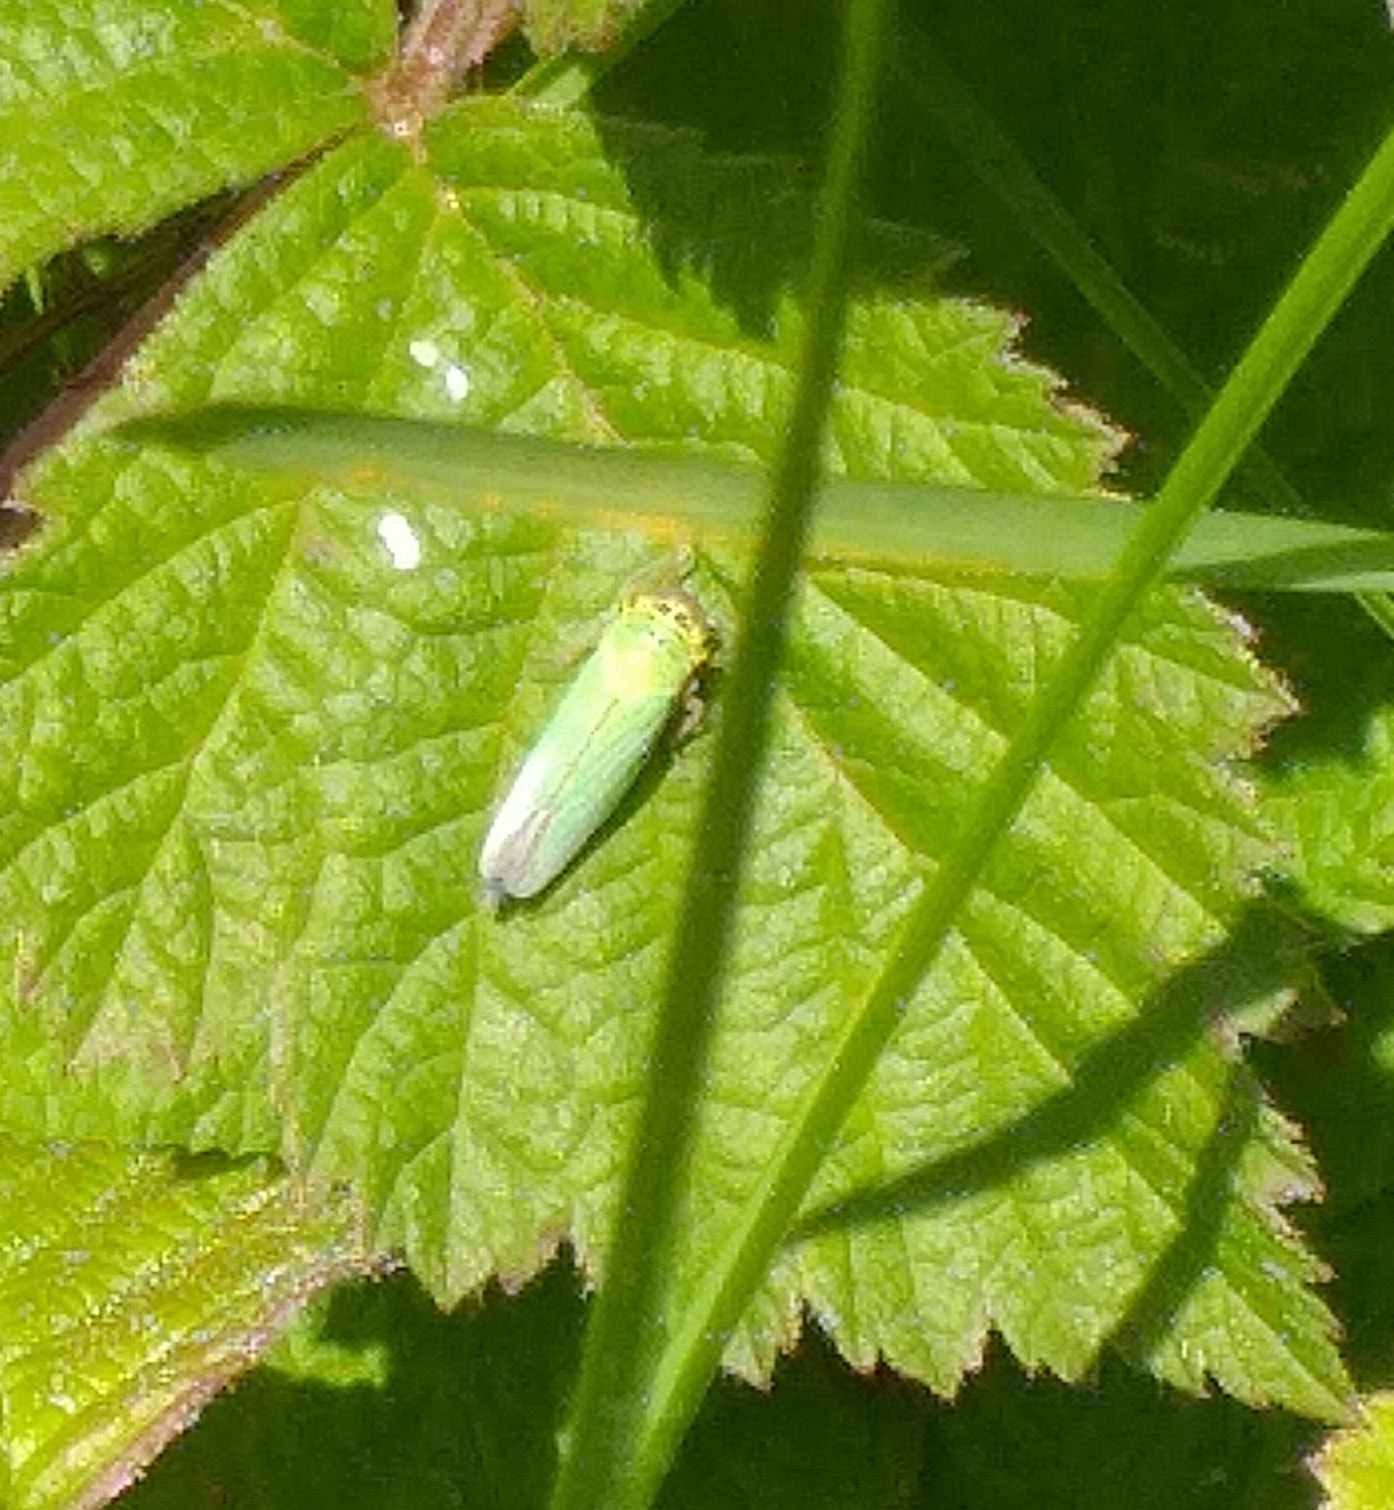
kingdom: Animalia
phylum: Arthropoda
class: Insecta
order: Hemiptera
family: Cicadellidae
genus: Cicadella
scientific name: Cicadella viridis
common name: Leafhopper
